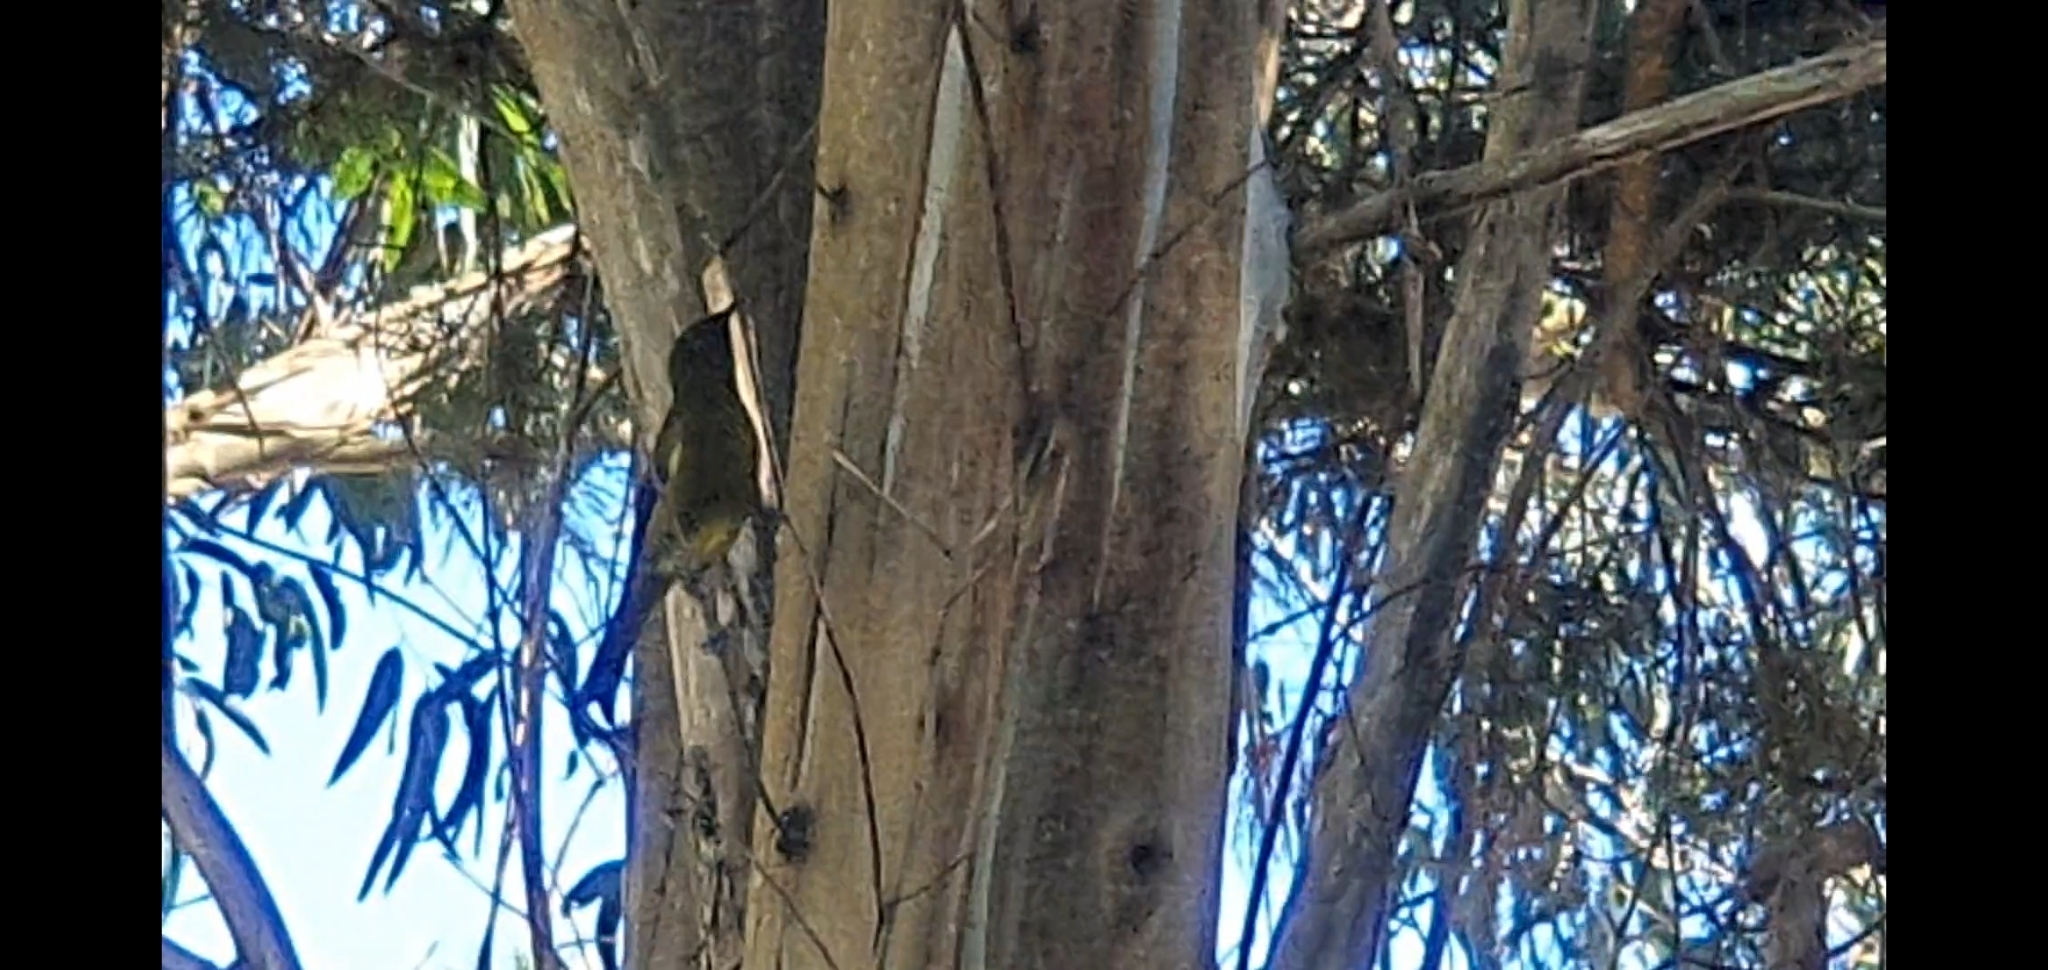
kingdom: Animalia
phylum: Chordata
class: Aves
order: Passeriformes
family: Meliphagidae
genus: Anthornis
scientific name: Anthornis melanura
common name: New zealand bellbird
